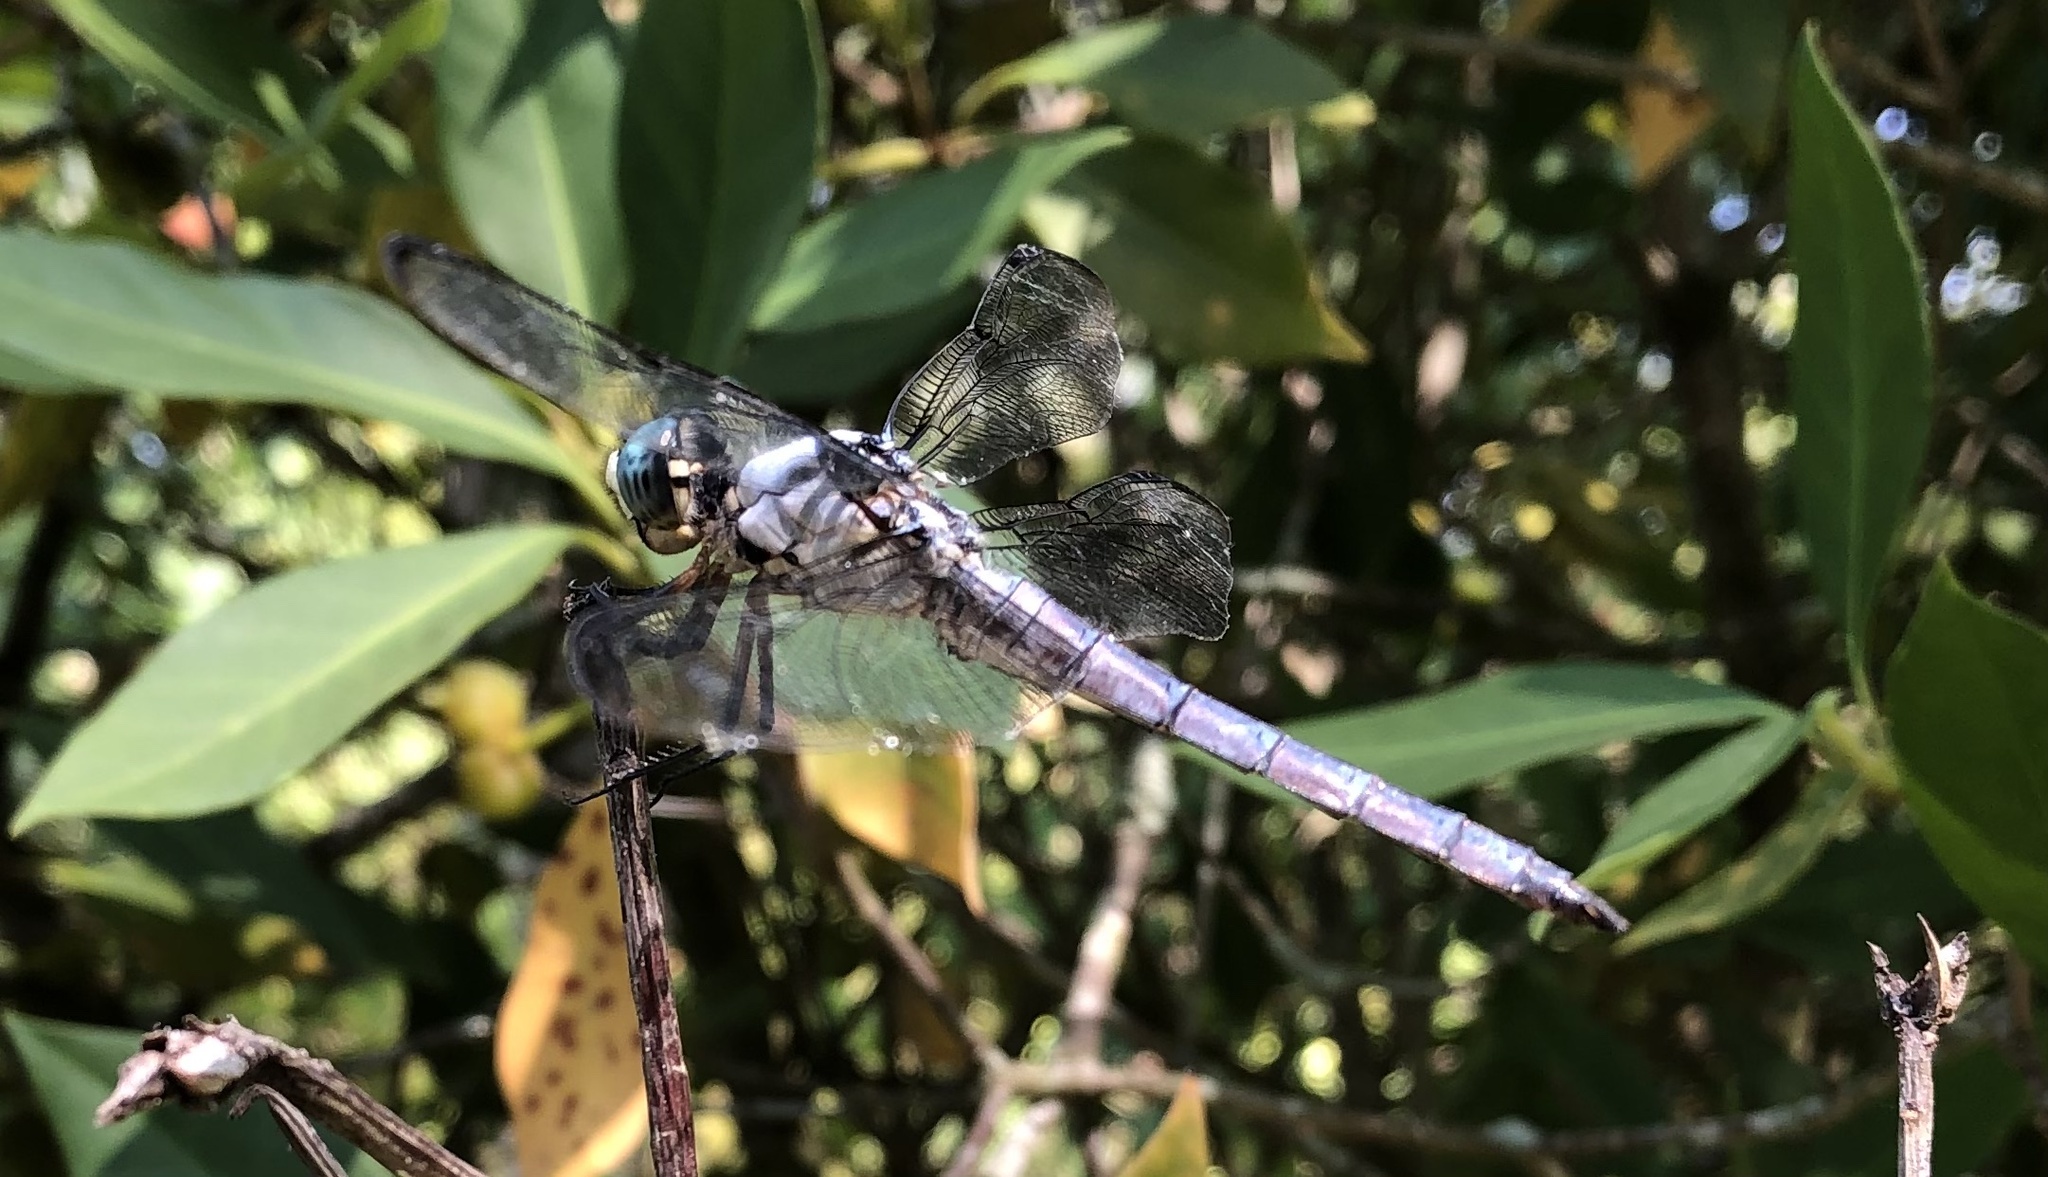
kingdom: Animalia
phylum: Arthropoda
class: Insecta
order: Odonata
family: Libellulidae
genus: Libellula
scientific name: Libellula vibrans
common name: Great blue skimmer
